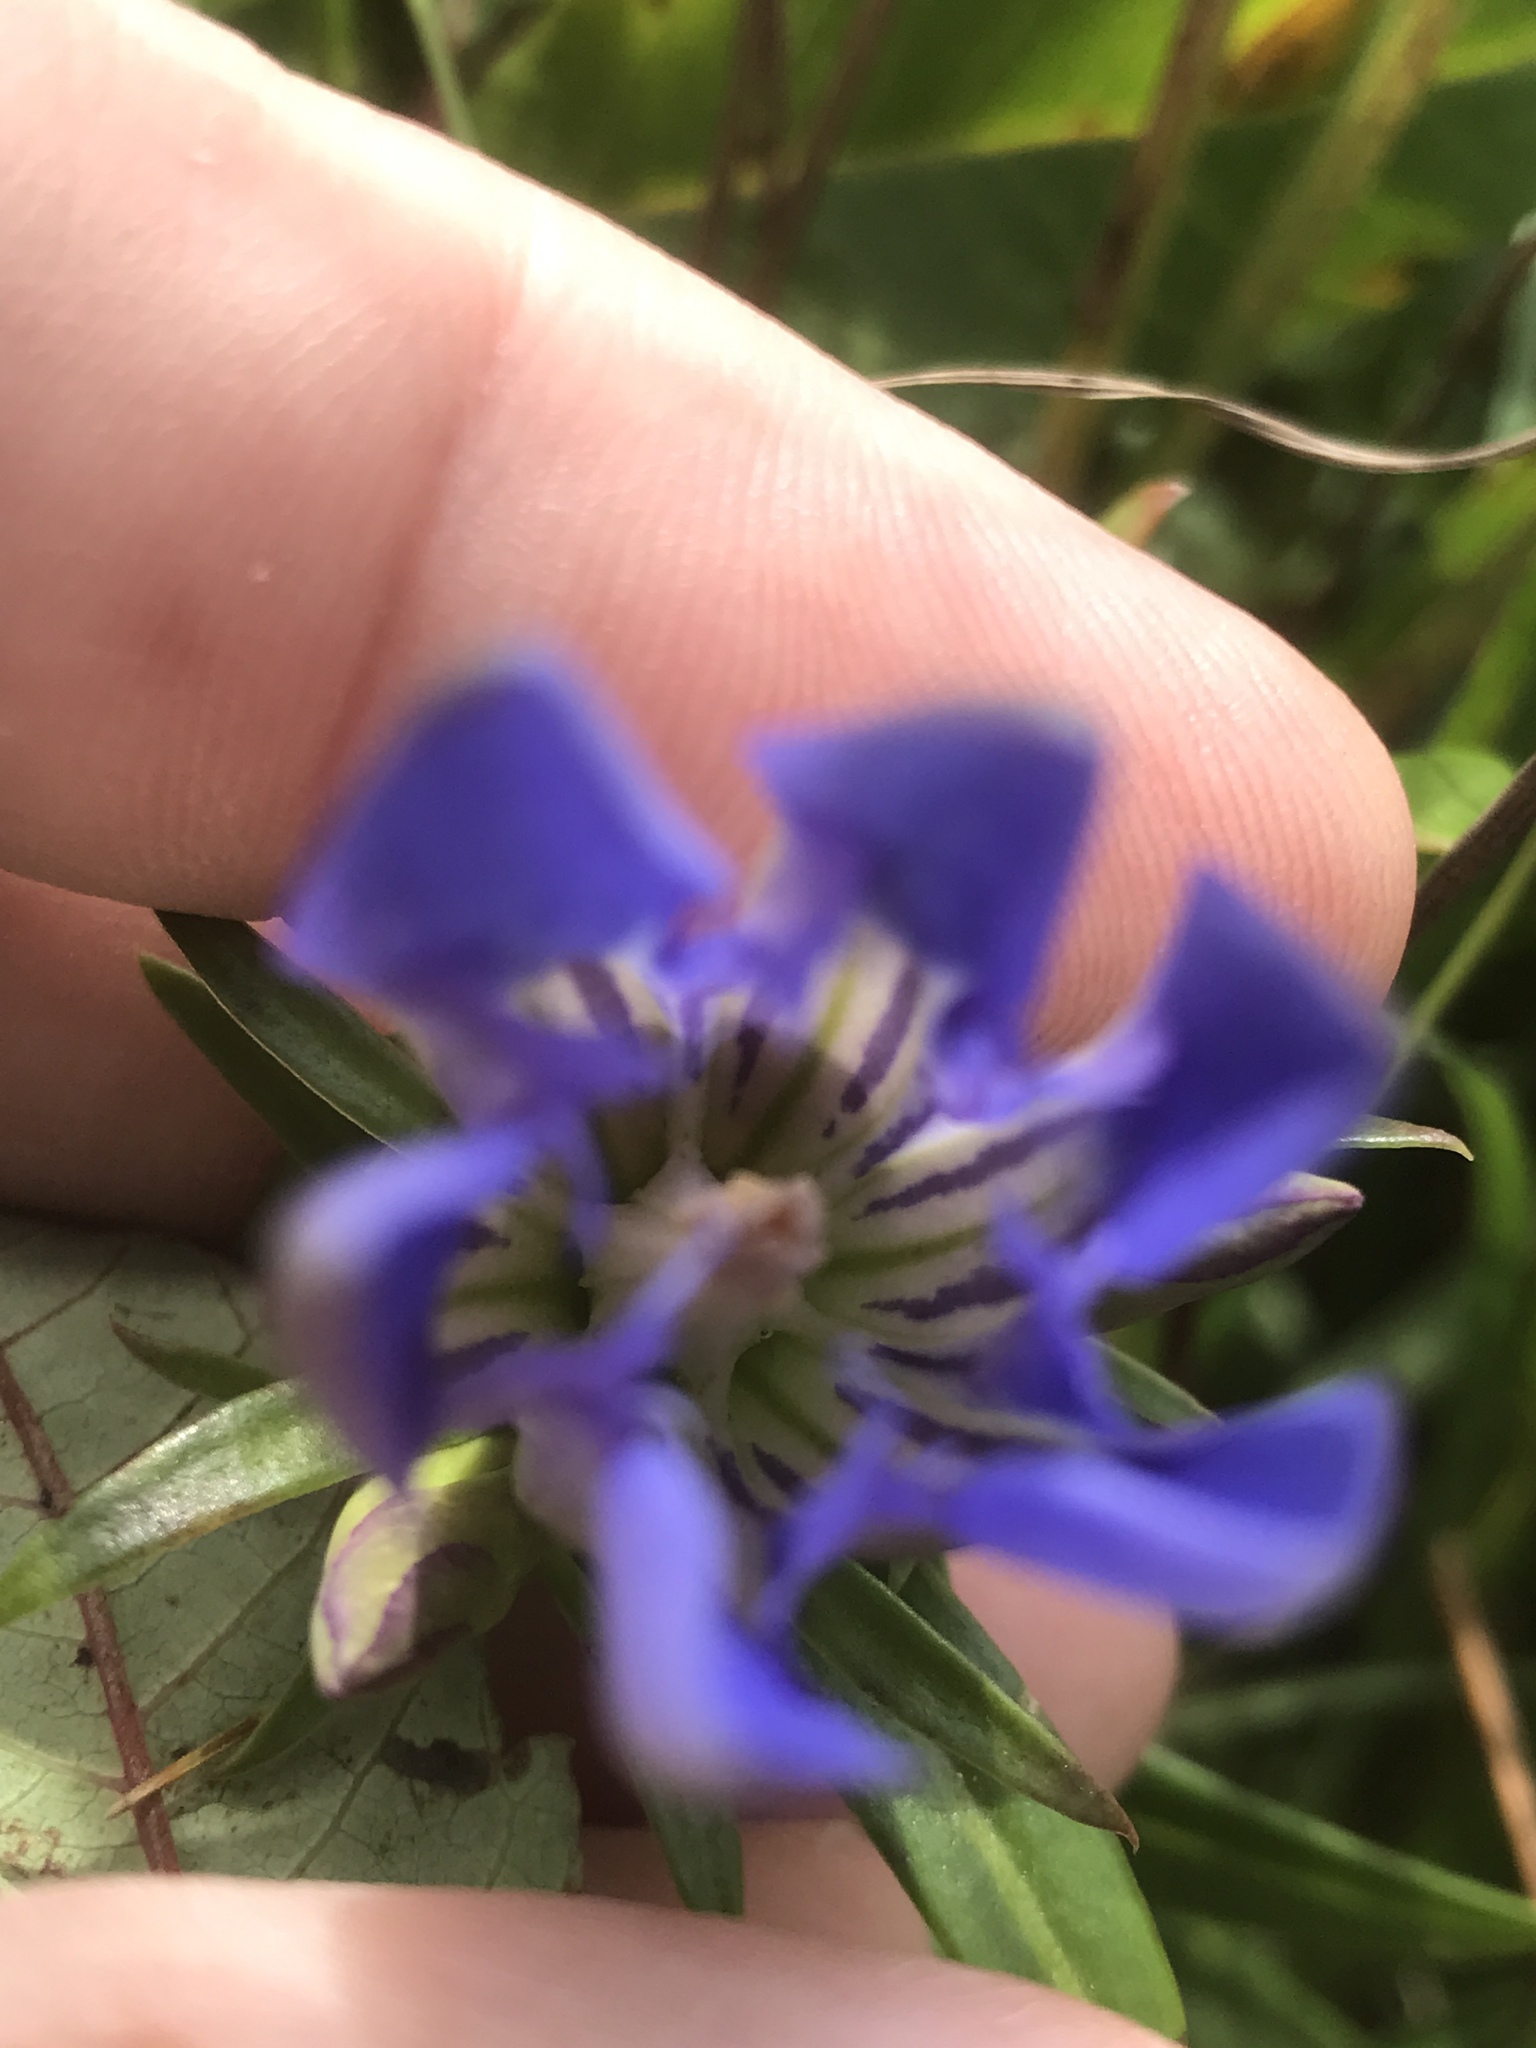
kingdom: Plantae
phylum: Tracheophyta
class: Magnoliopsida
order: Gentianales
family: Gentianaceae
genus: Gentiana
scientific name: Gentiana puberulenta
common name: Downy gentian
